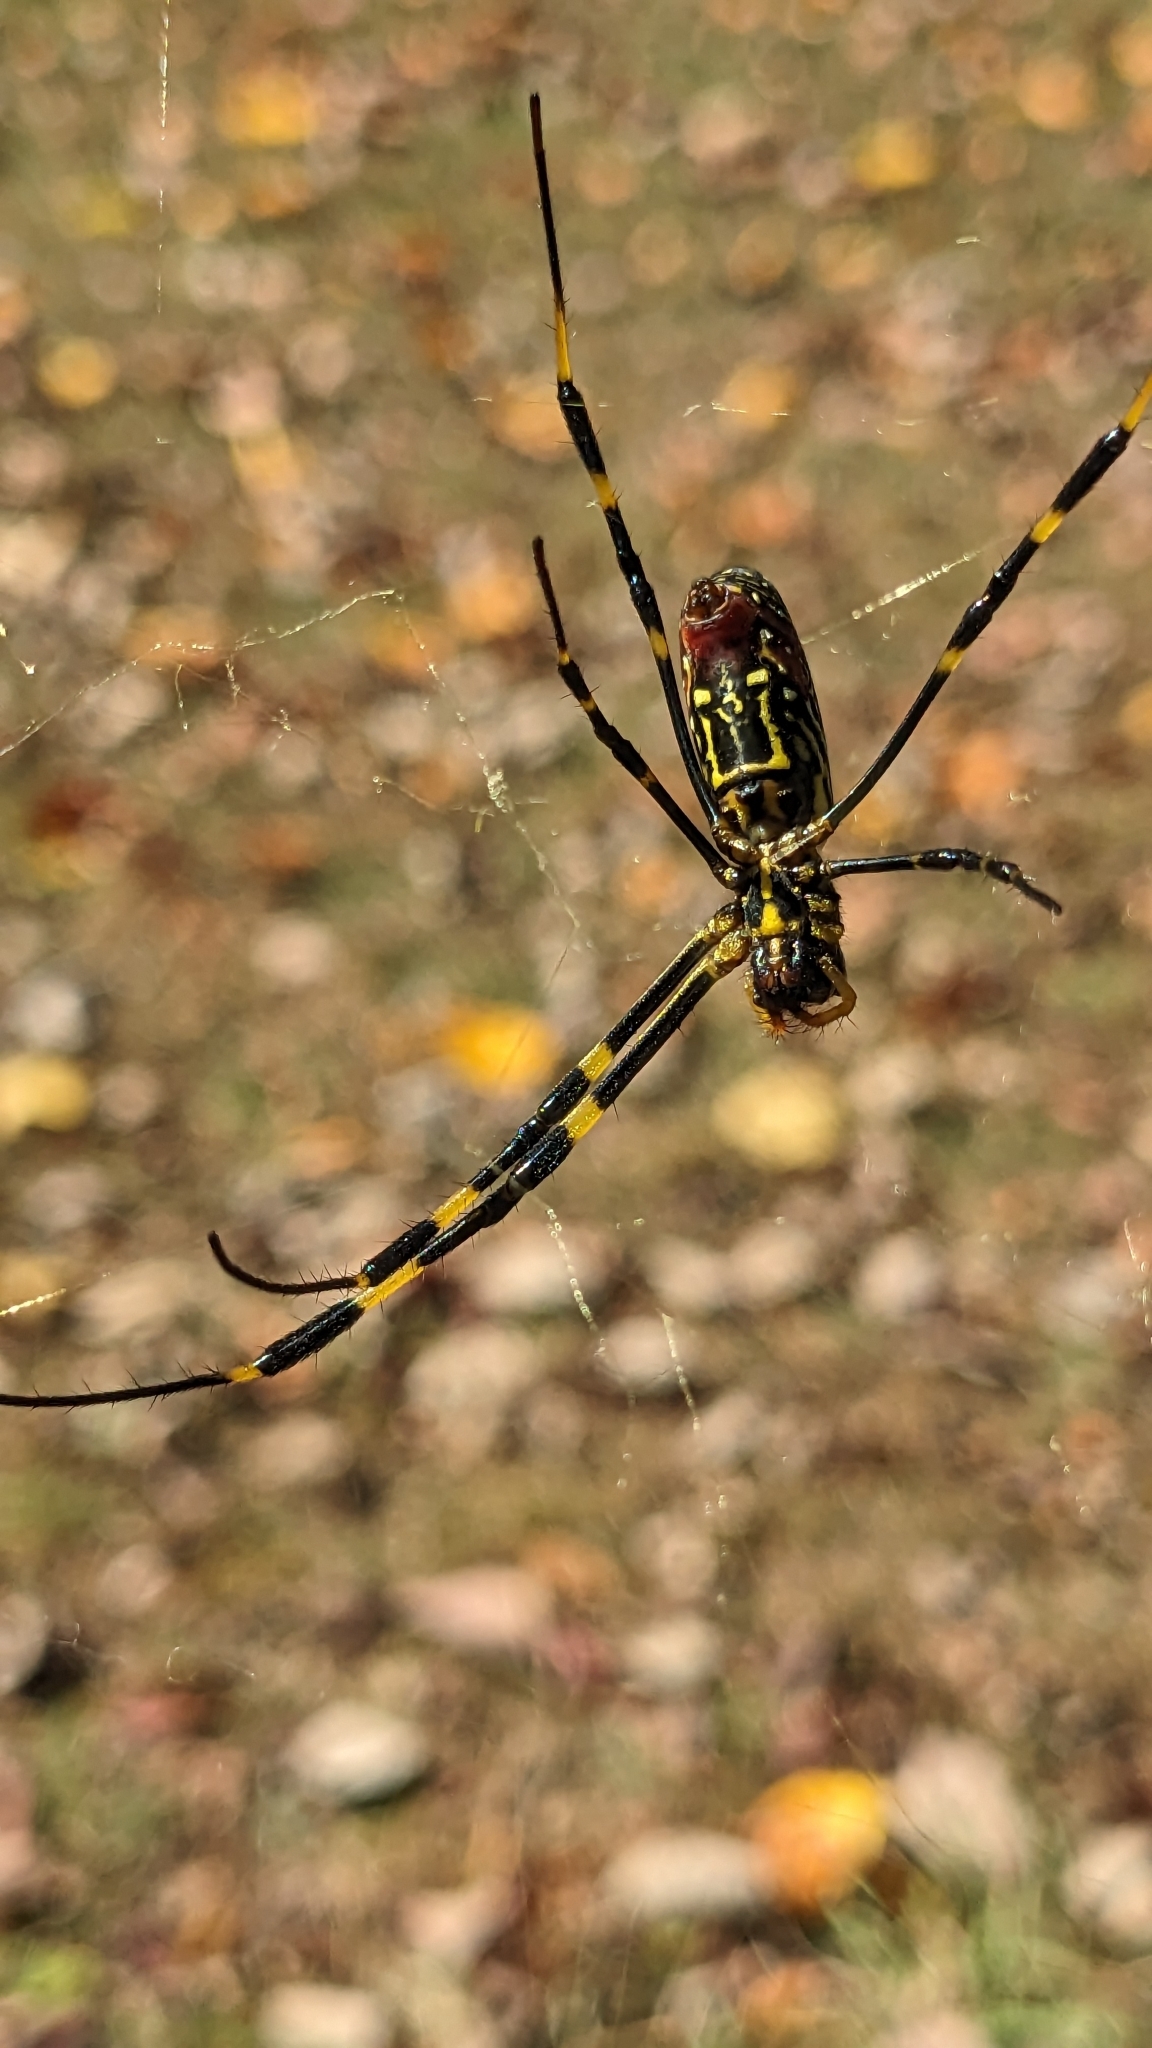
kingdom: Animalia
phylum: Arthropoda
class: Arachnida
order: Araneae
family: Araneidae
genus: Trichonephila
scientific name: Trichonephila clavata
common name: Jorō spider
